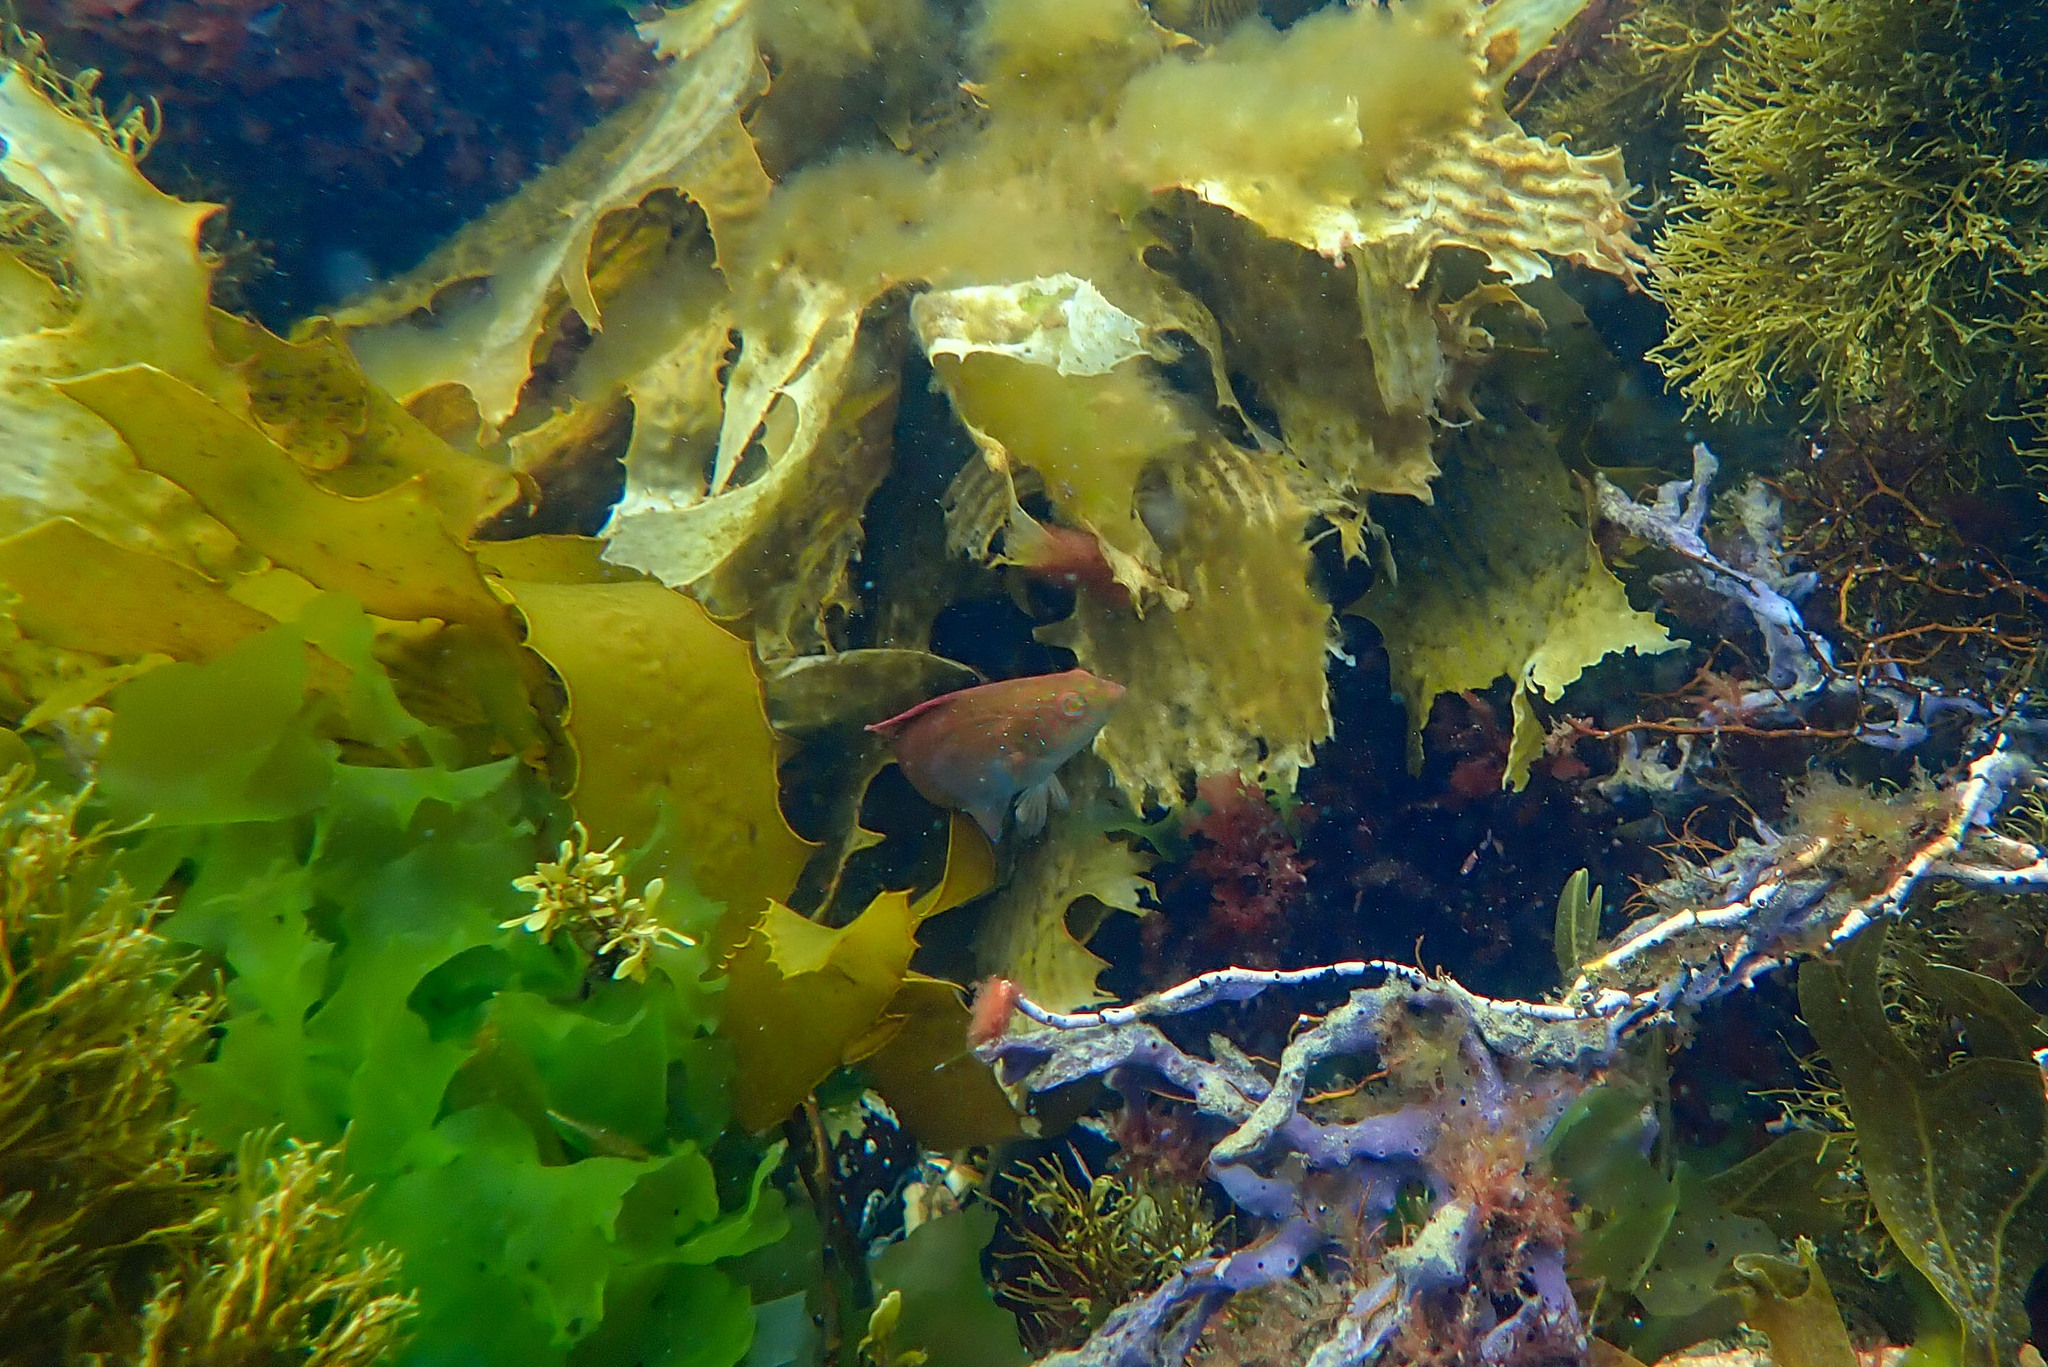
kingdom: Animalia
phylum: Chordata
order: Perciformes
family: Labridae
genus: Pictilabrus
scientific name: Pictilabrus laticlavius
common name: Patrician wrasse
